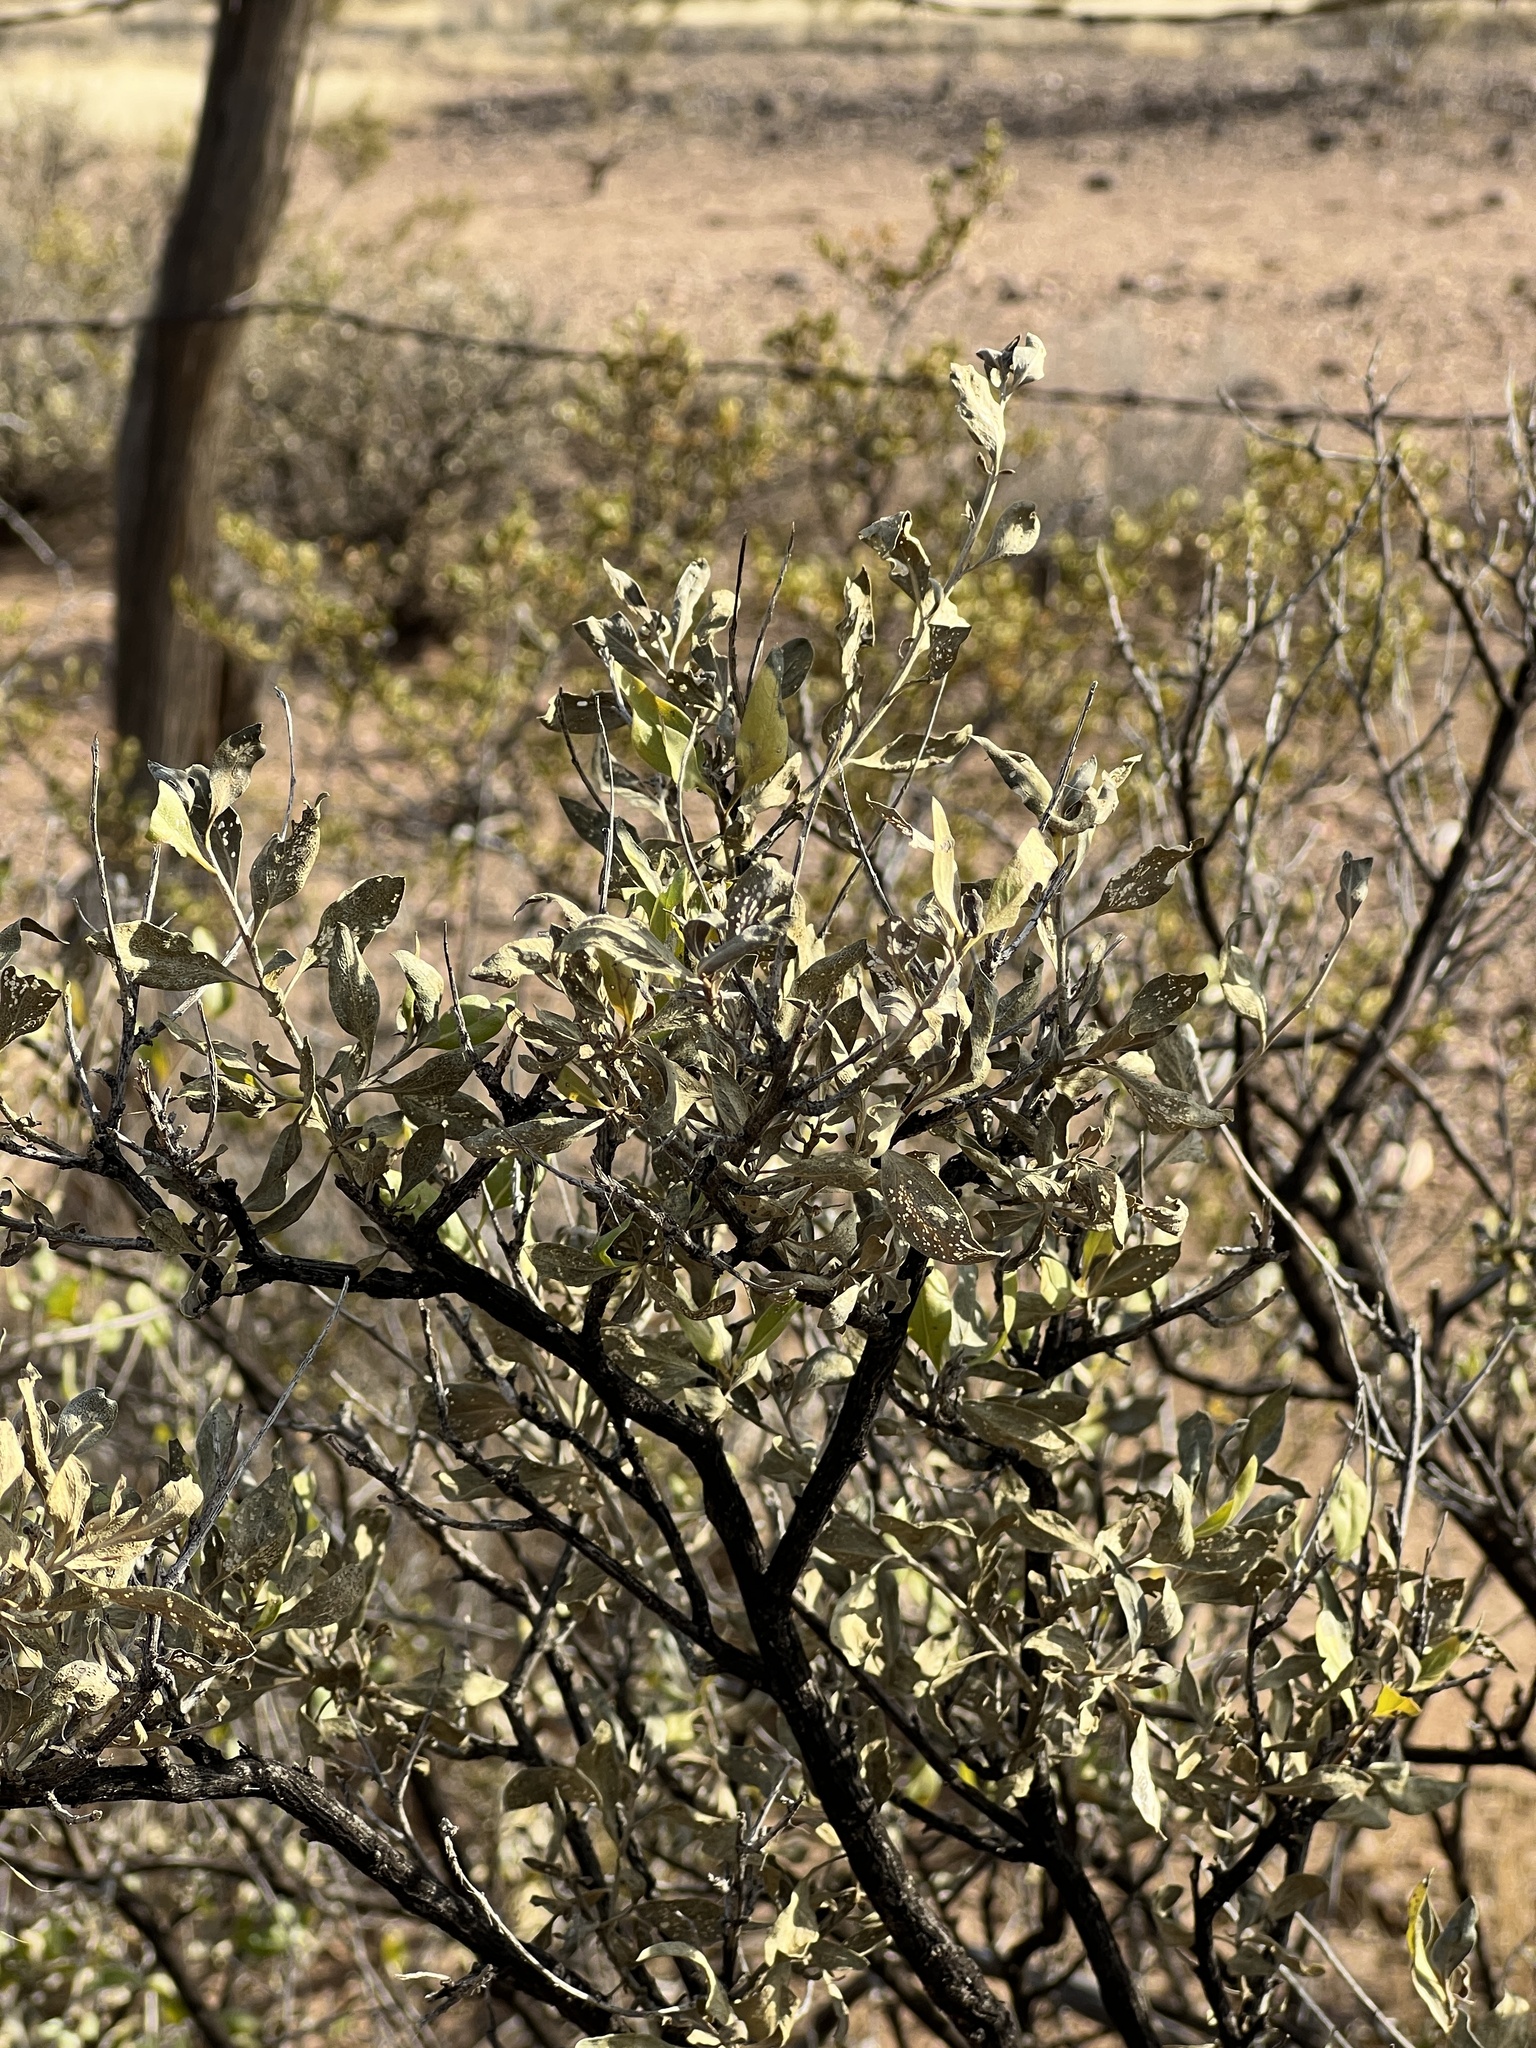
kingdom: Plantae
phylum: Tracheophyta
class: Magnoliopsida
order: Asterales
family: Asteraceae
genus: Flourensia
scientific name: Flourensia cernua
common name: Varnishbush
